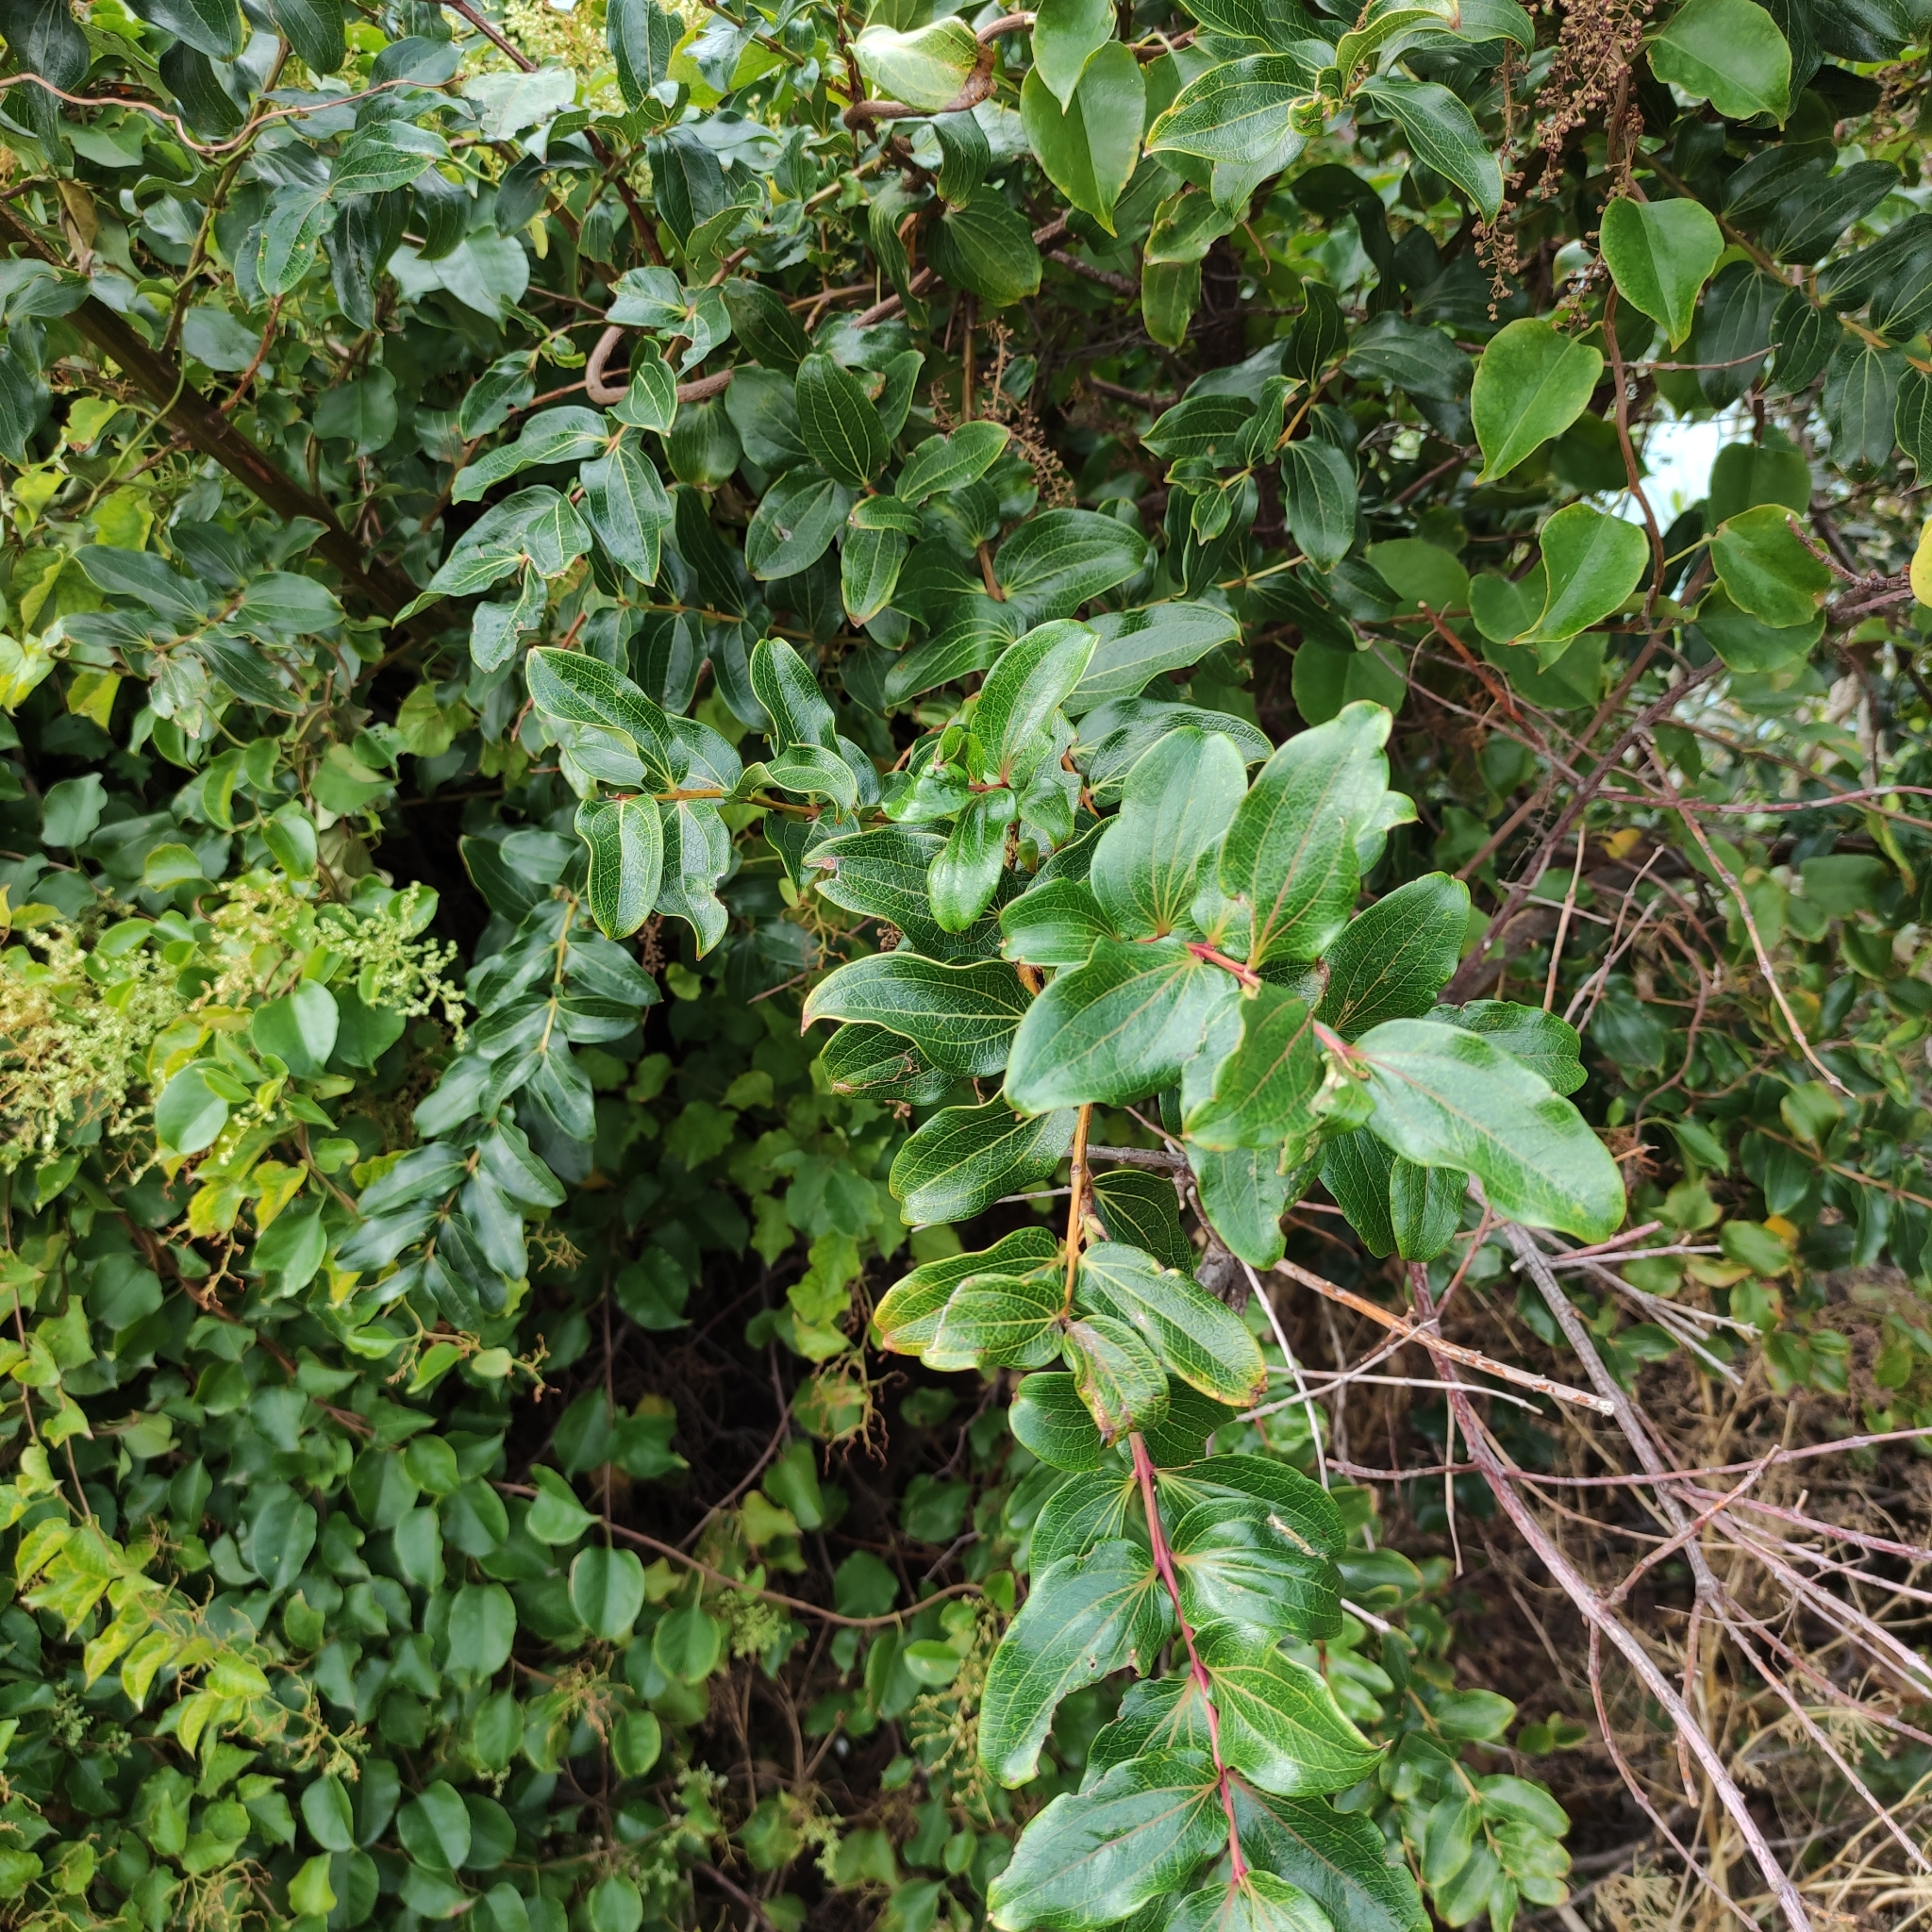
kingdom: Plantae
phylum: Tracheophyta
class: Magnoliopsida
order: Cucurbitales
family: Coriariaceae
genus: Coriaria
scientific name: Coriaria arborea
